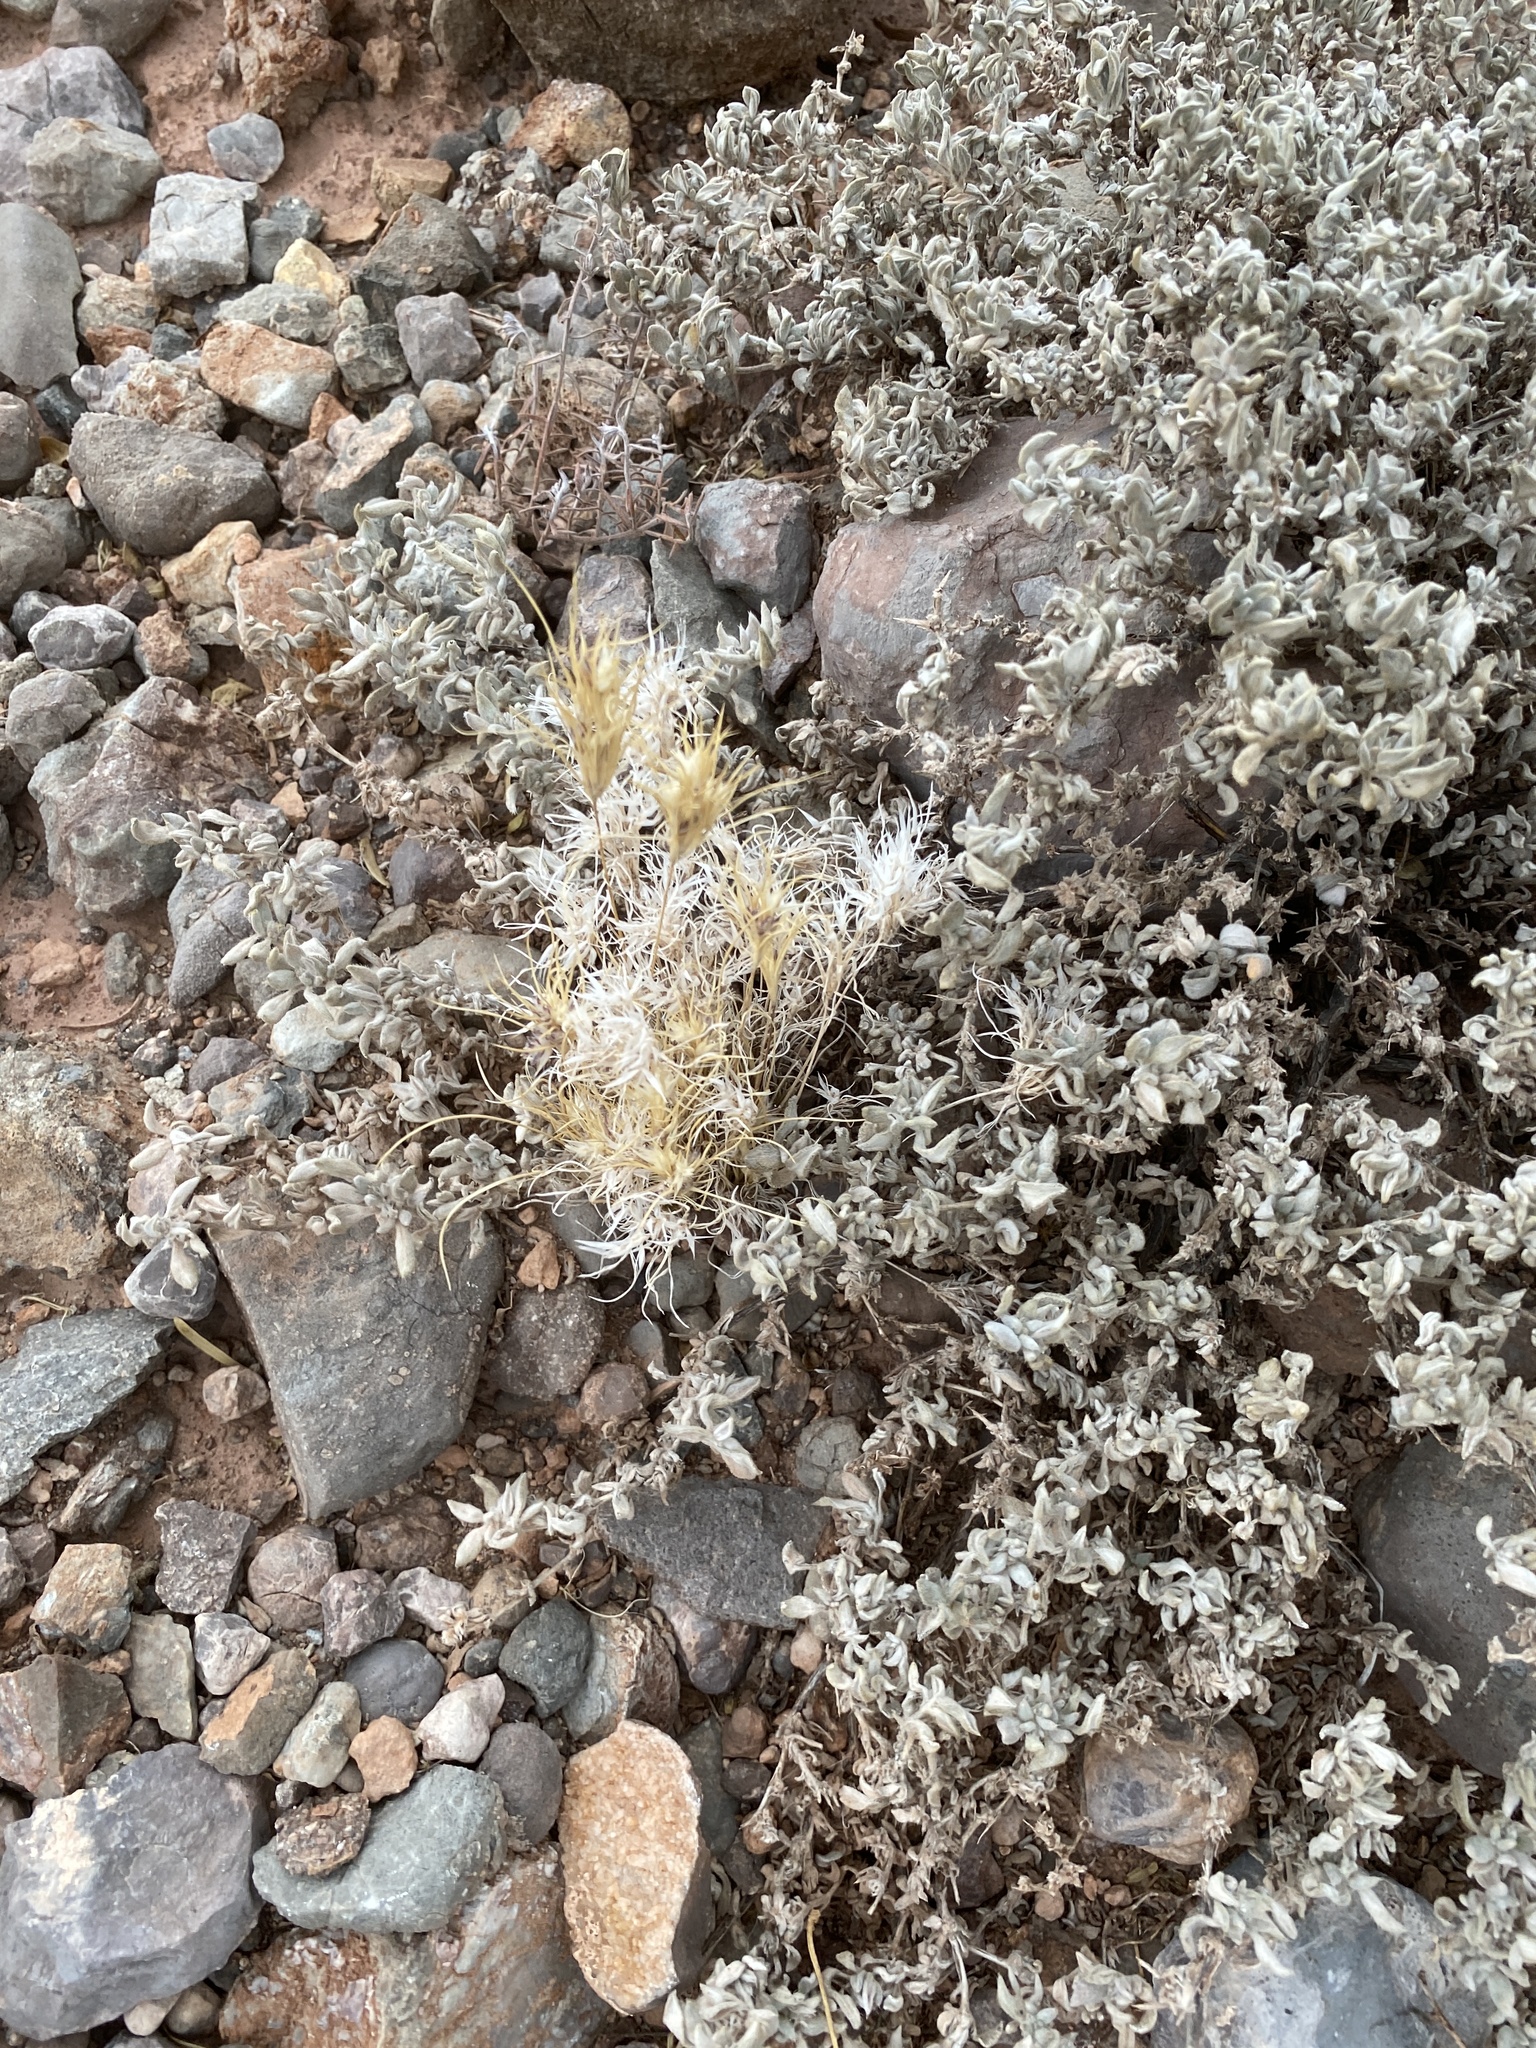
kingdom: Plantae
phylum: Tracheophyta
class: Liliopsida
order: Poales
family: Poaceae
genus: Dasyochloa
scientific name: Dasyochloa pulchella
